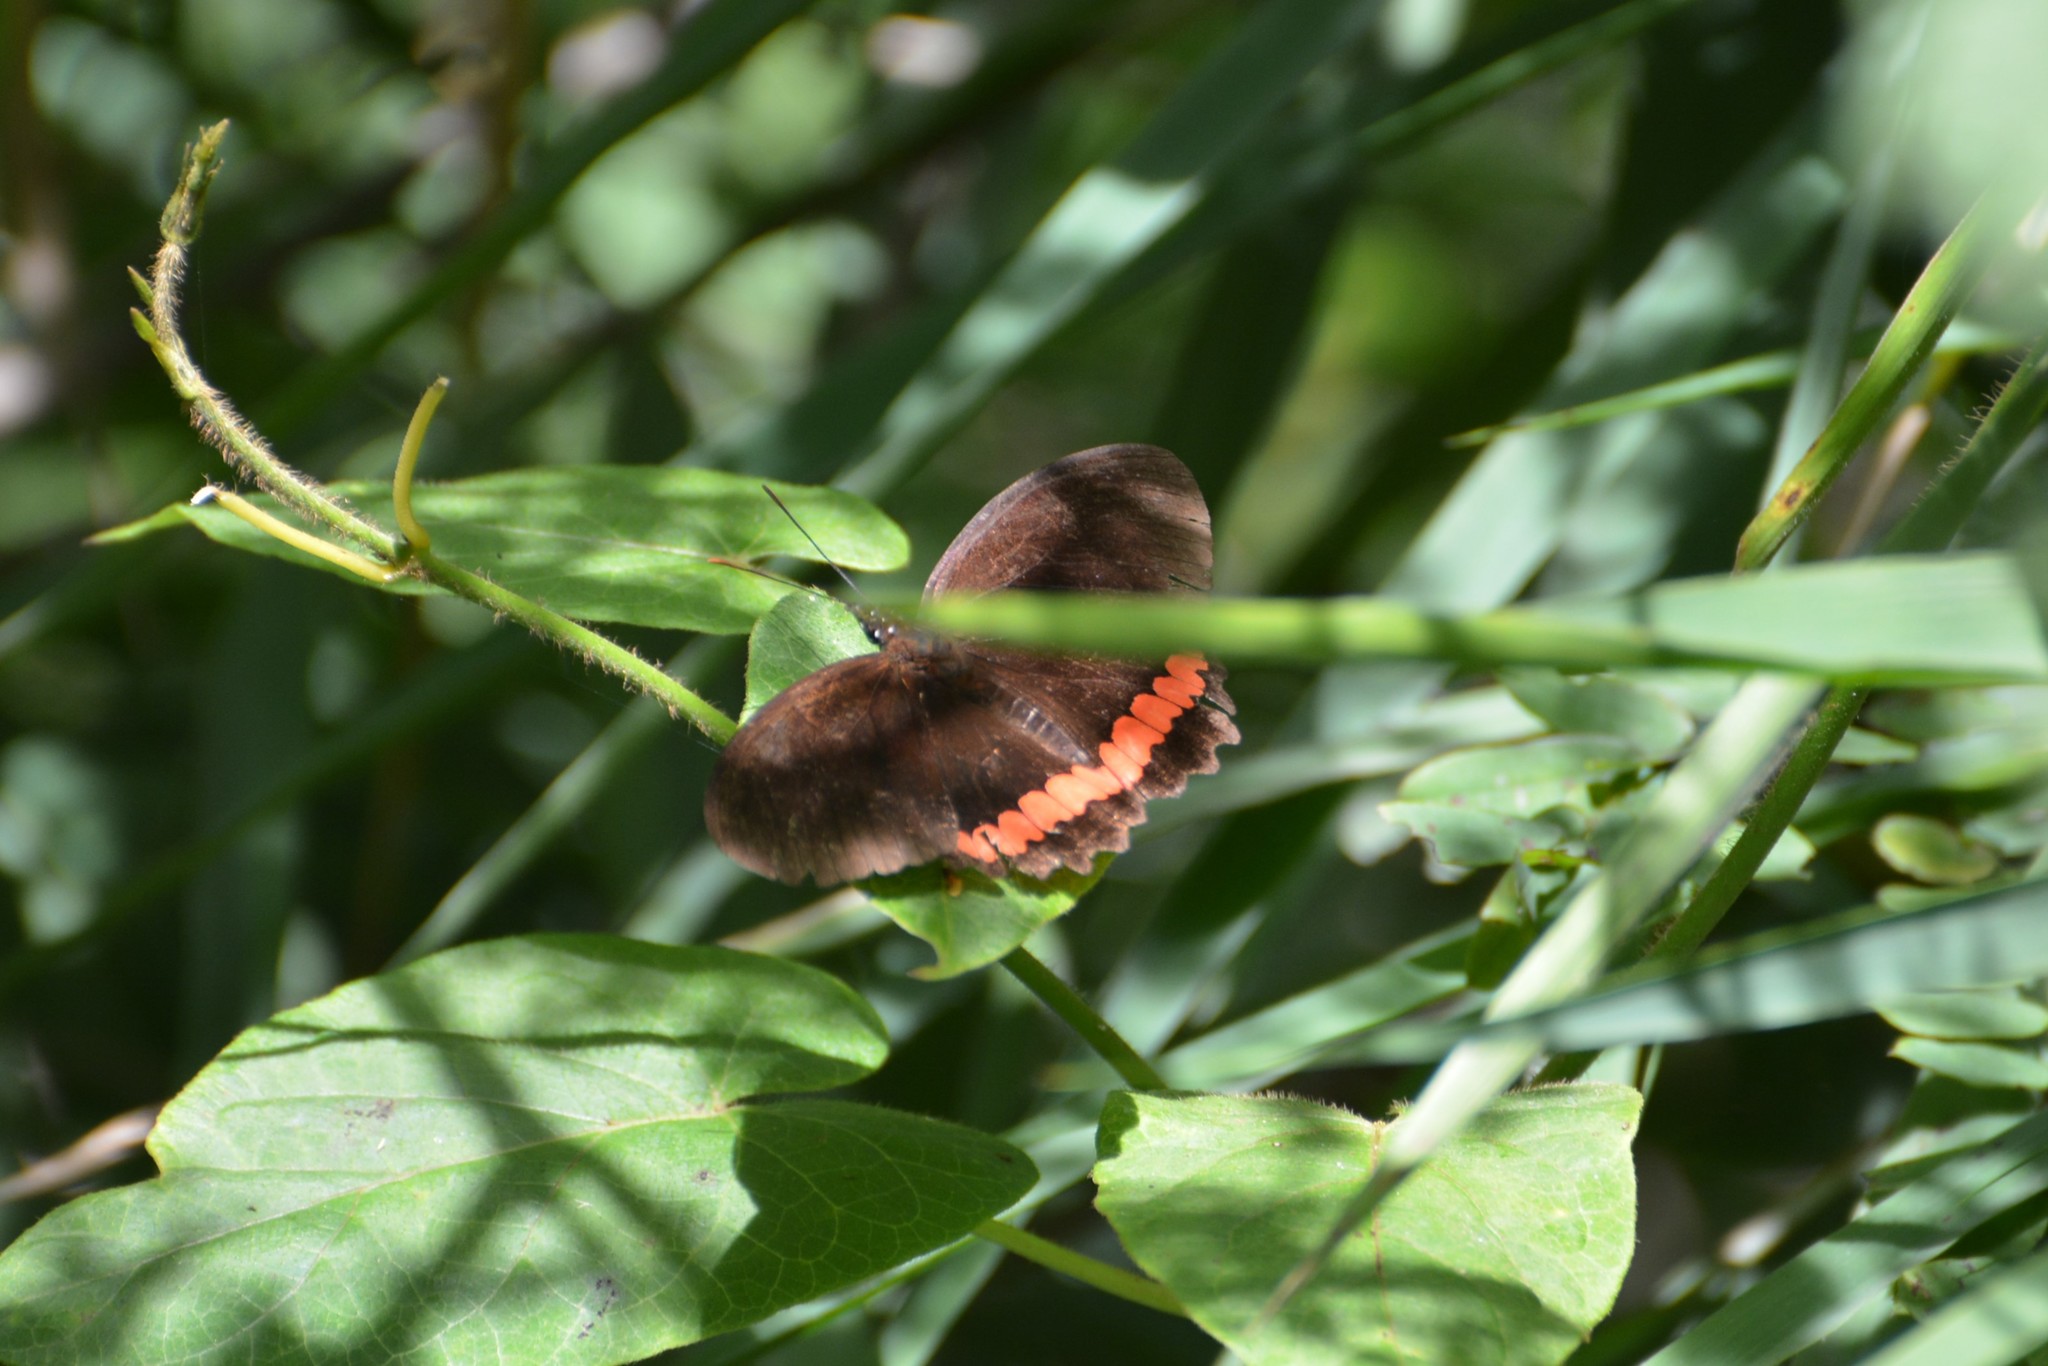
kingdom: Animalia
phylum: Arthropoda
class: Insecta
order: Lepidoptera
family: Nymphalidae
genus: Biblis
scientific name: Biblis aganisa
